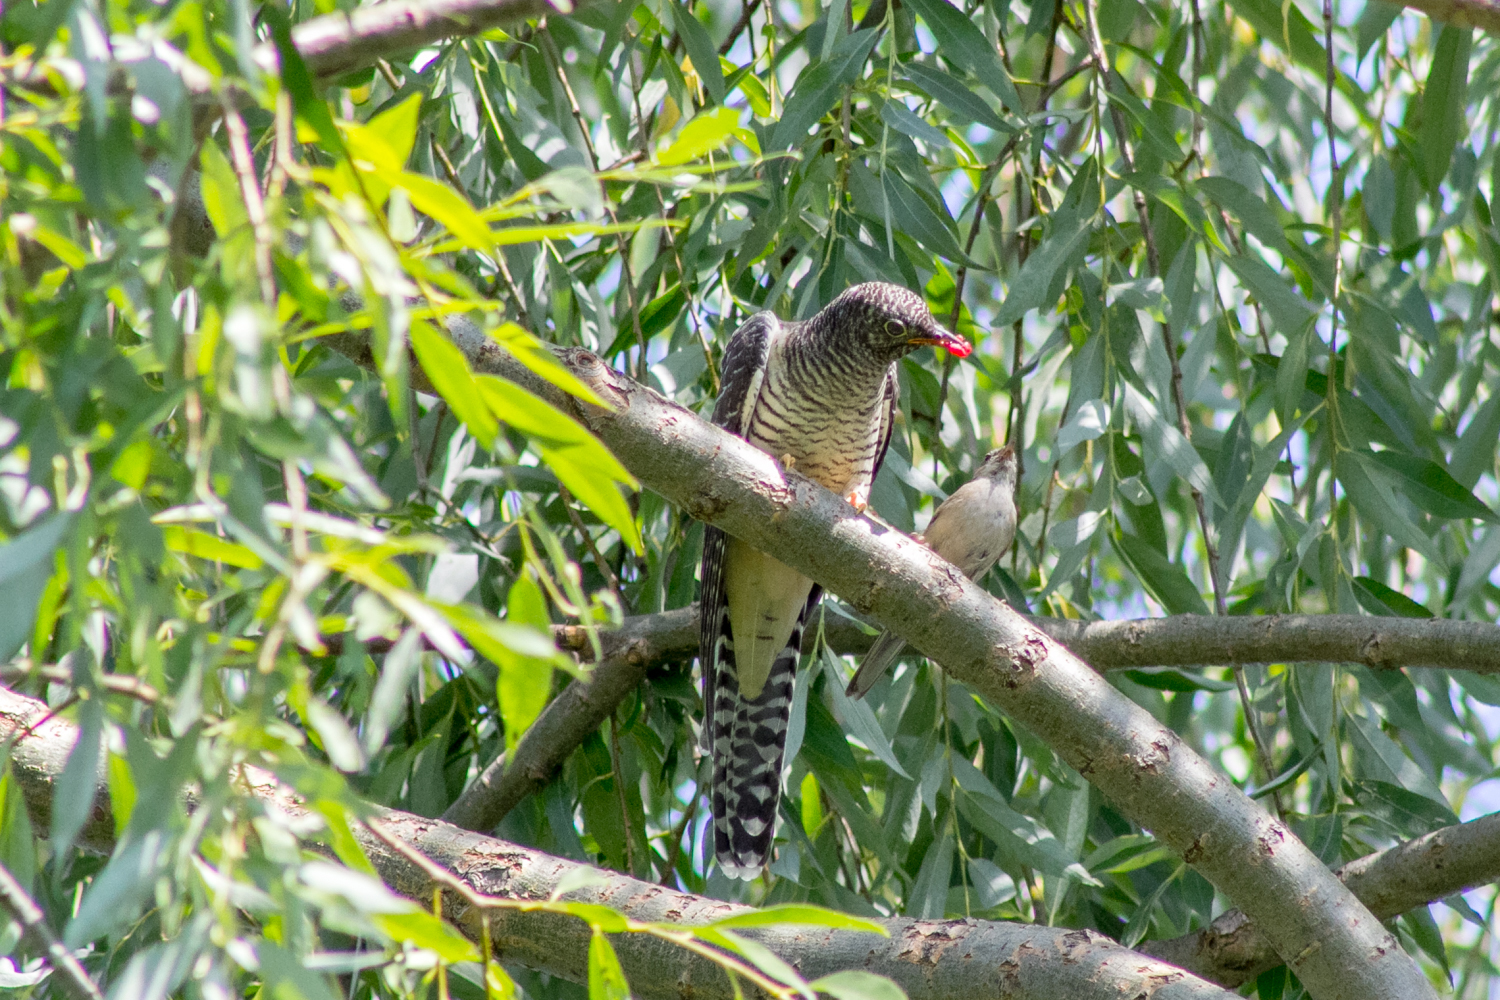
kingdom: Animalia
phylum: Chordata
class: Aves
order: Cuculiformes
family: Cuculidae
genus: Cuculus
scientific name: Cuculus canorus
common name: Common cuckoo
